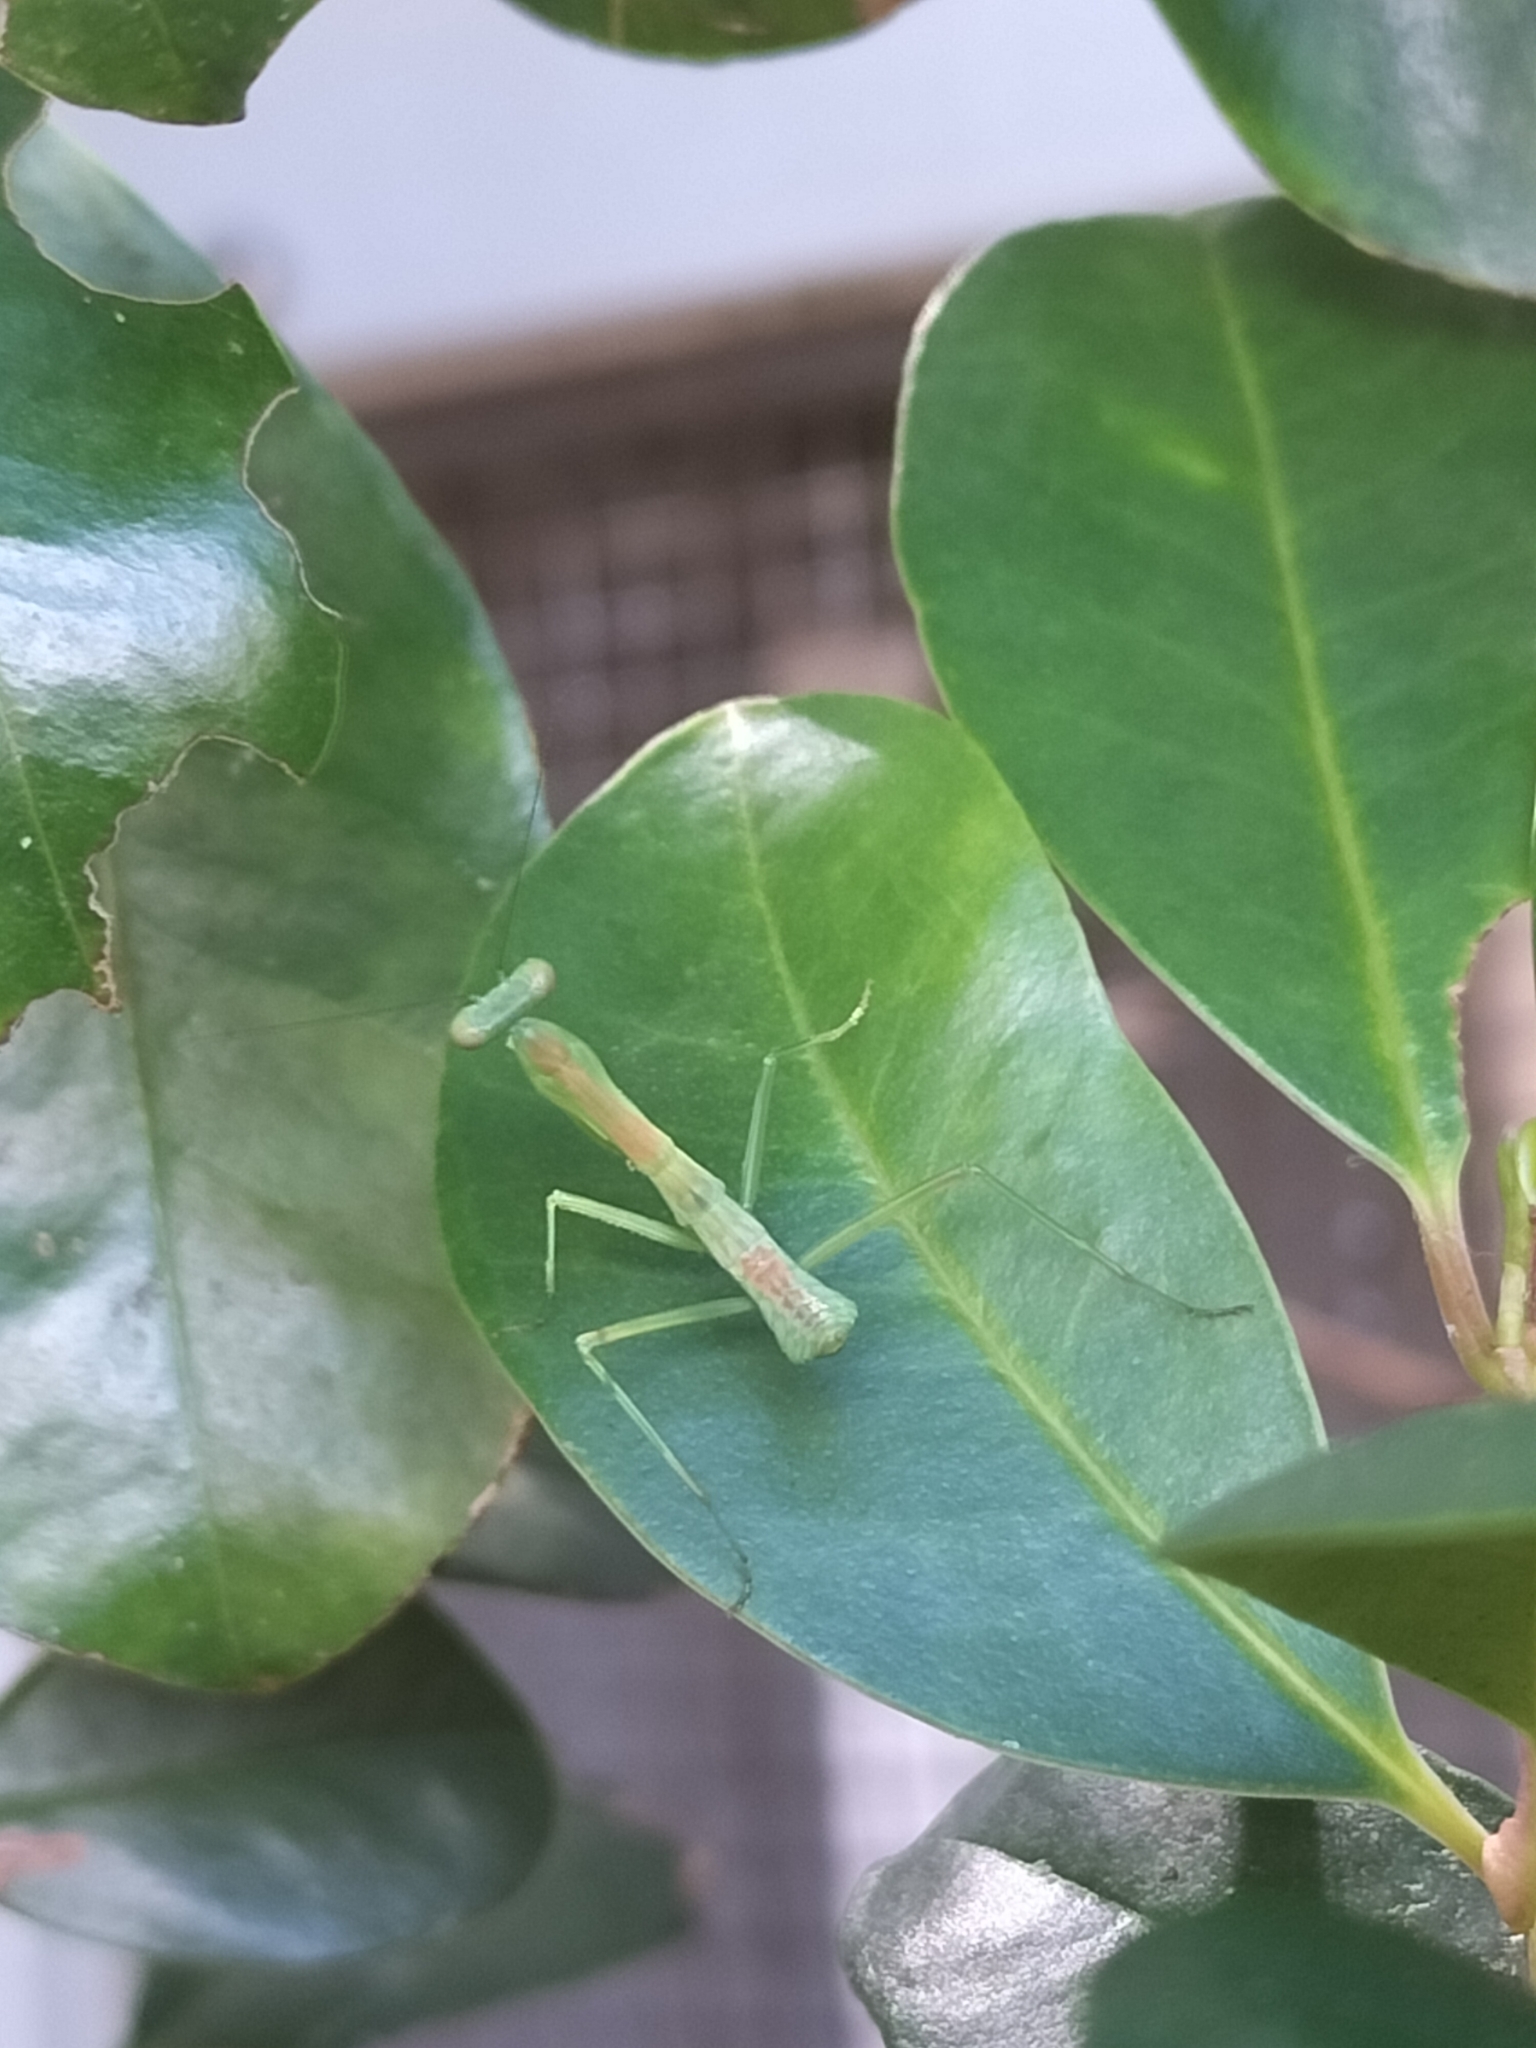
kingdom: Animalia
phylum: Arthropoda
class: Insecta
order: Mantodea
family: Mantidae
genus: Hierodula
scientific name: Hierodula majuscula
